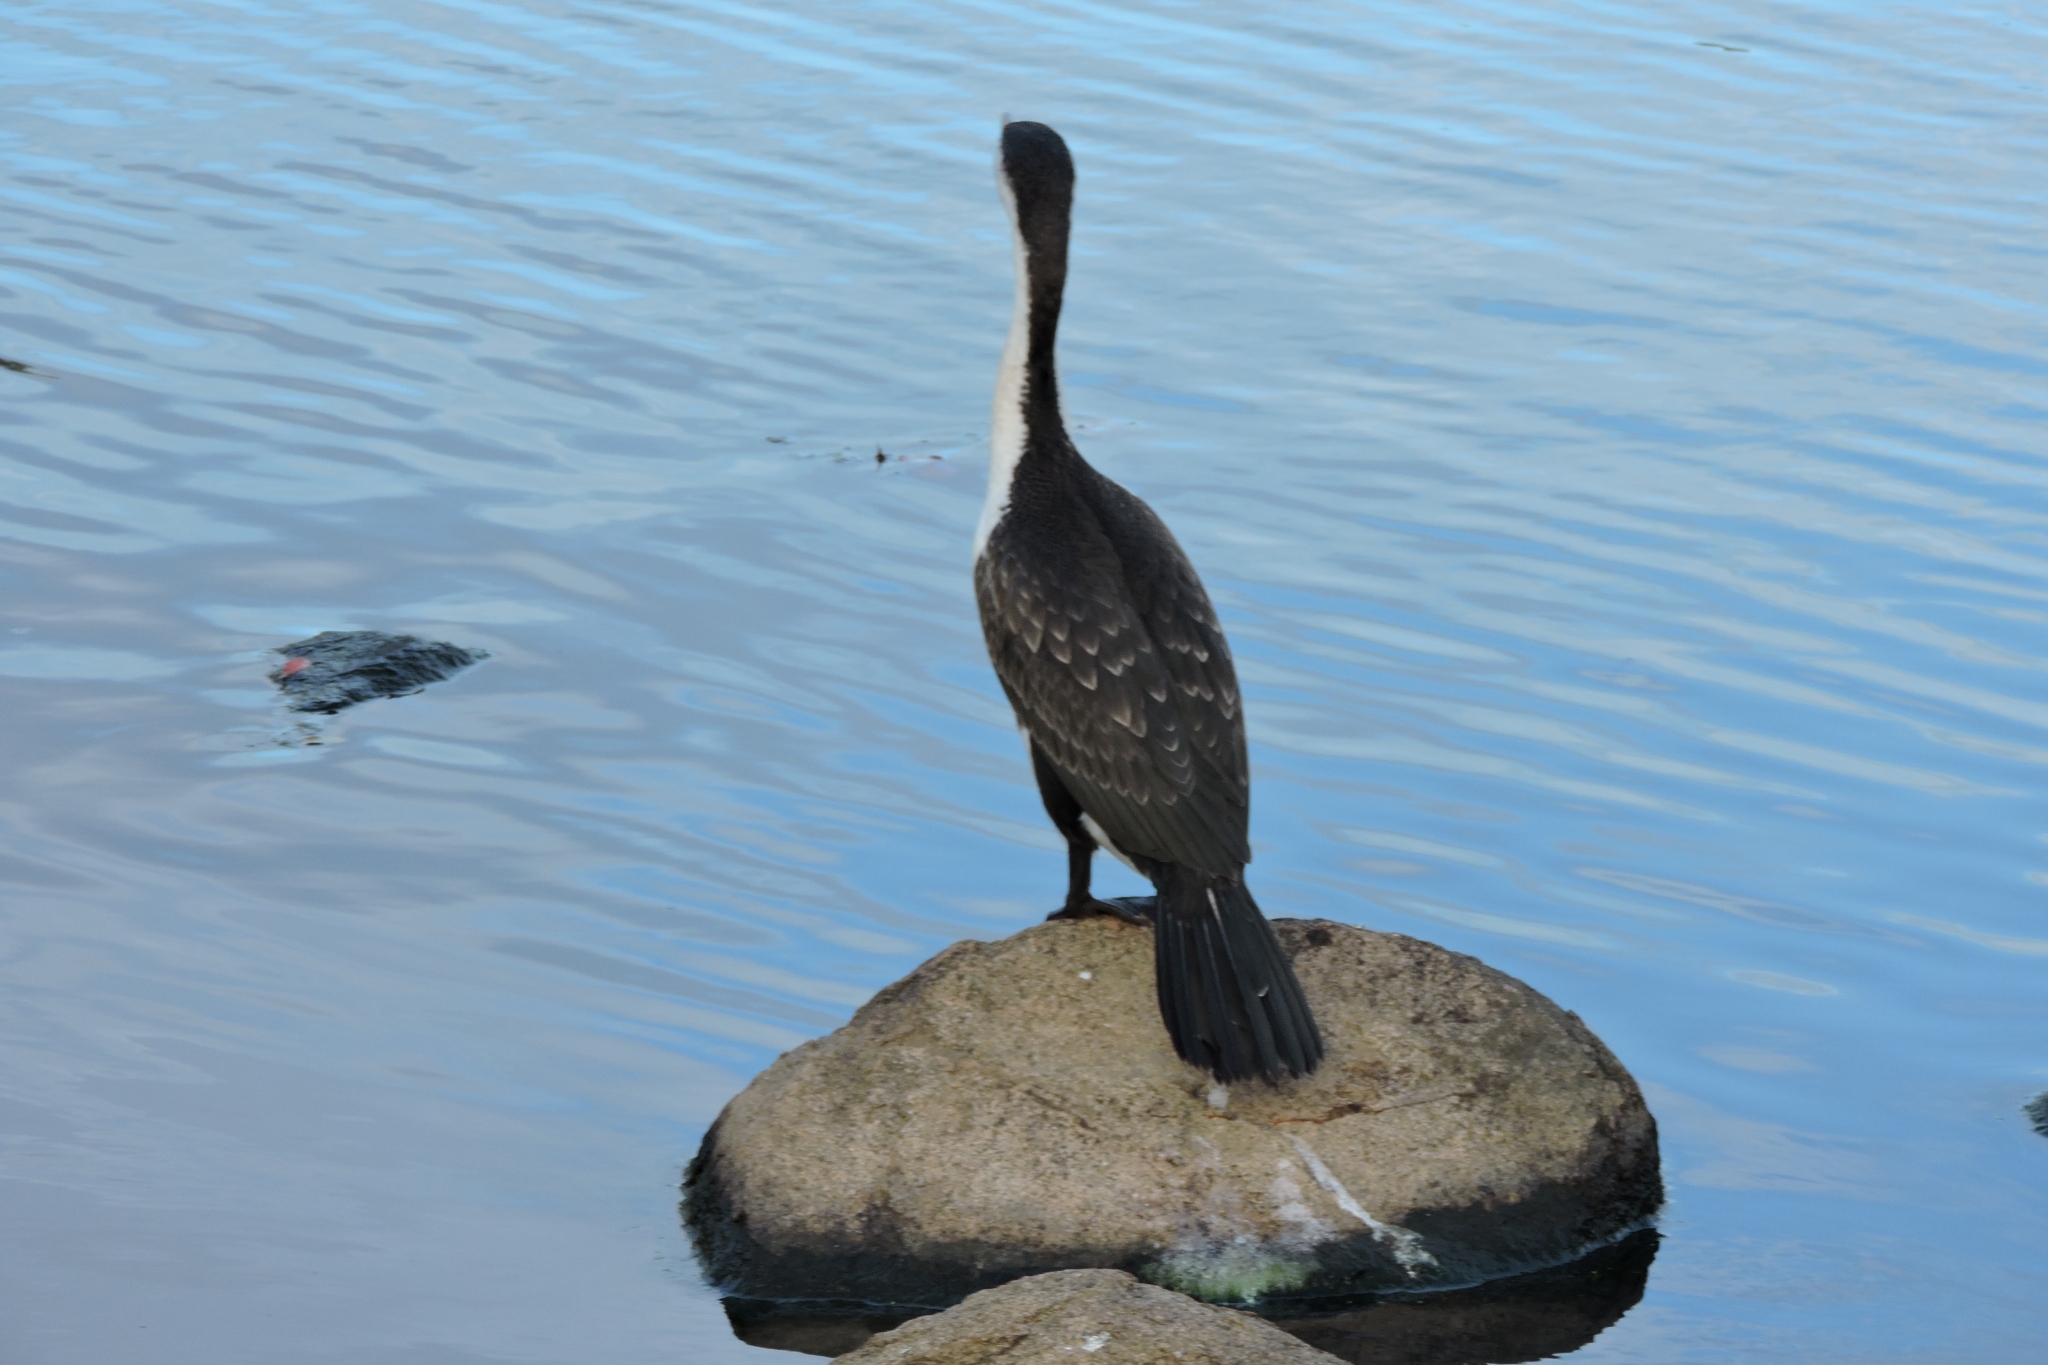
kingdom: Animalia
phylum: Chordata
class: Aves
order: Suliformes
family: Phalacrocoracidae
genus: Phalacrocorax
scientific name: Phalacrocorax varius
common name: Pied cormorant
